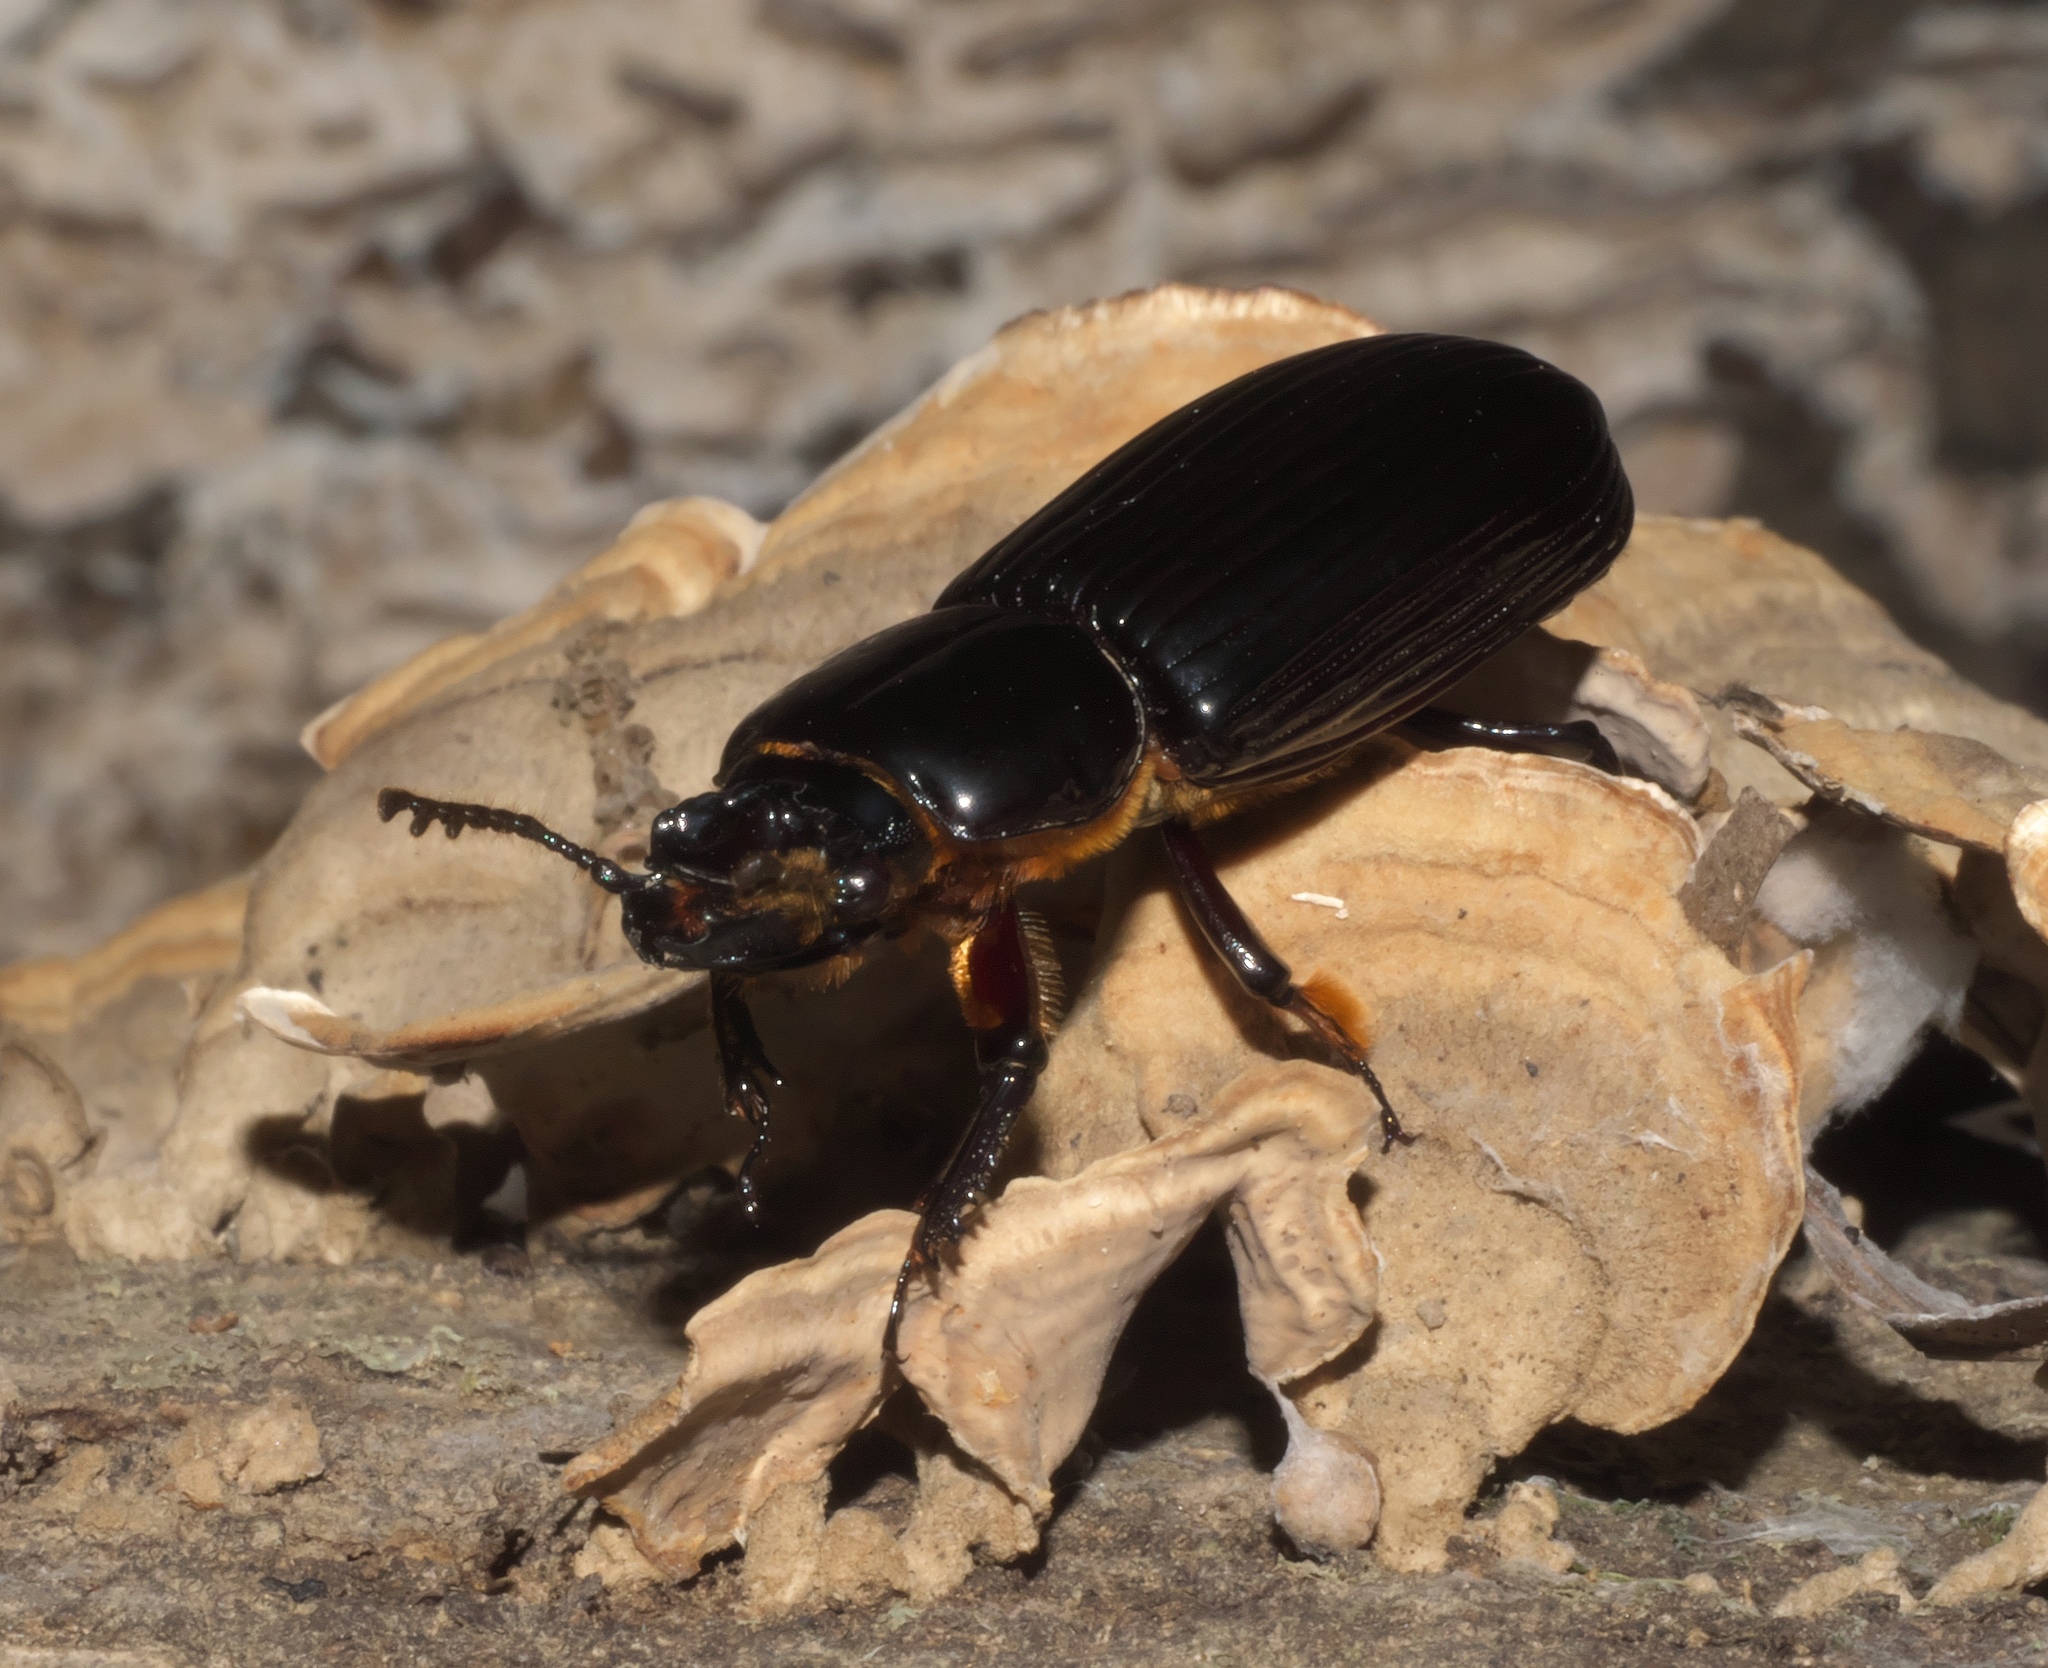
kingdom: Animalia
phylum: Arthropoda
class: Insecta
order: Coleoptera
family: Passalidae
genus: Odontotaenius
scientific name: Odontotaenius disjunctus
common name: Patent leather beetle
